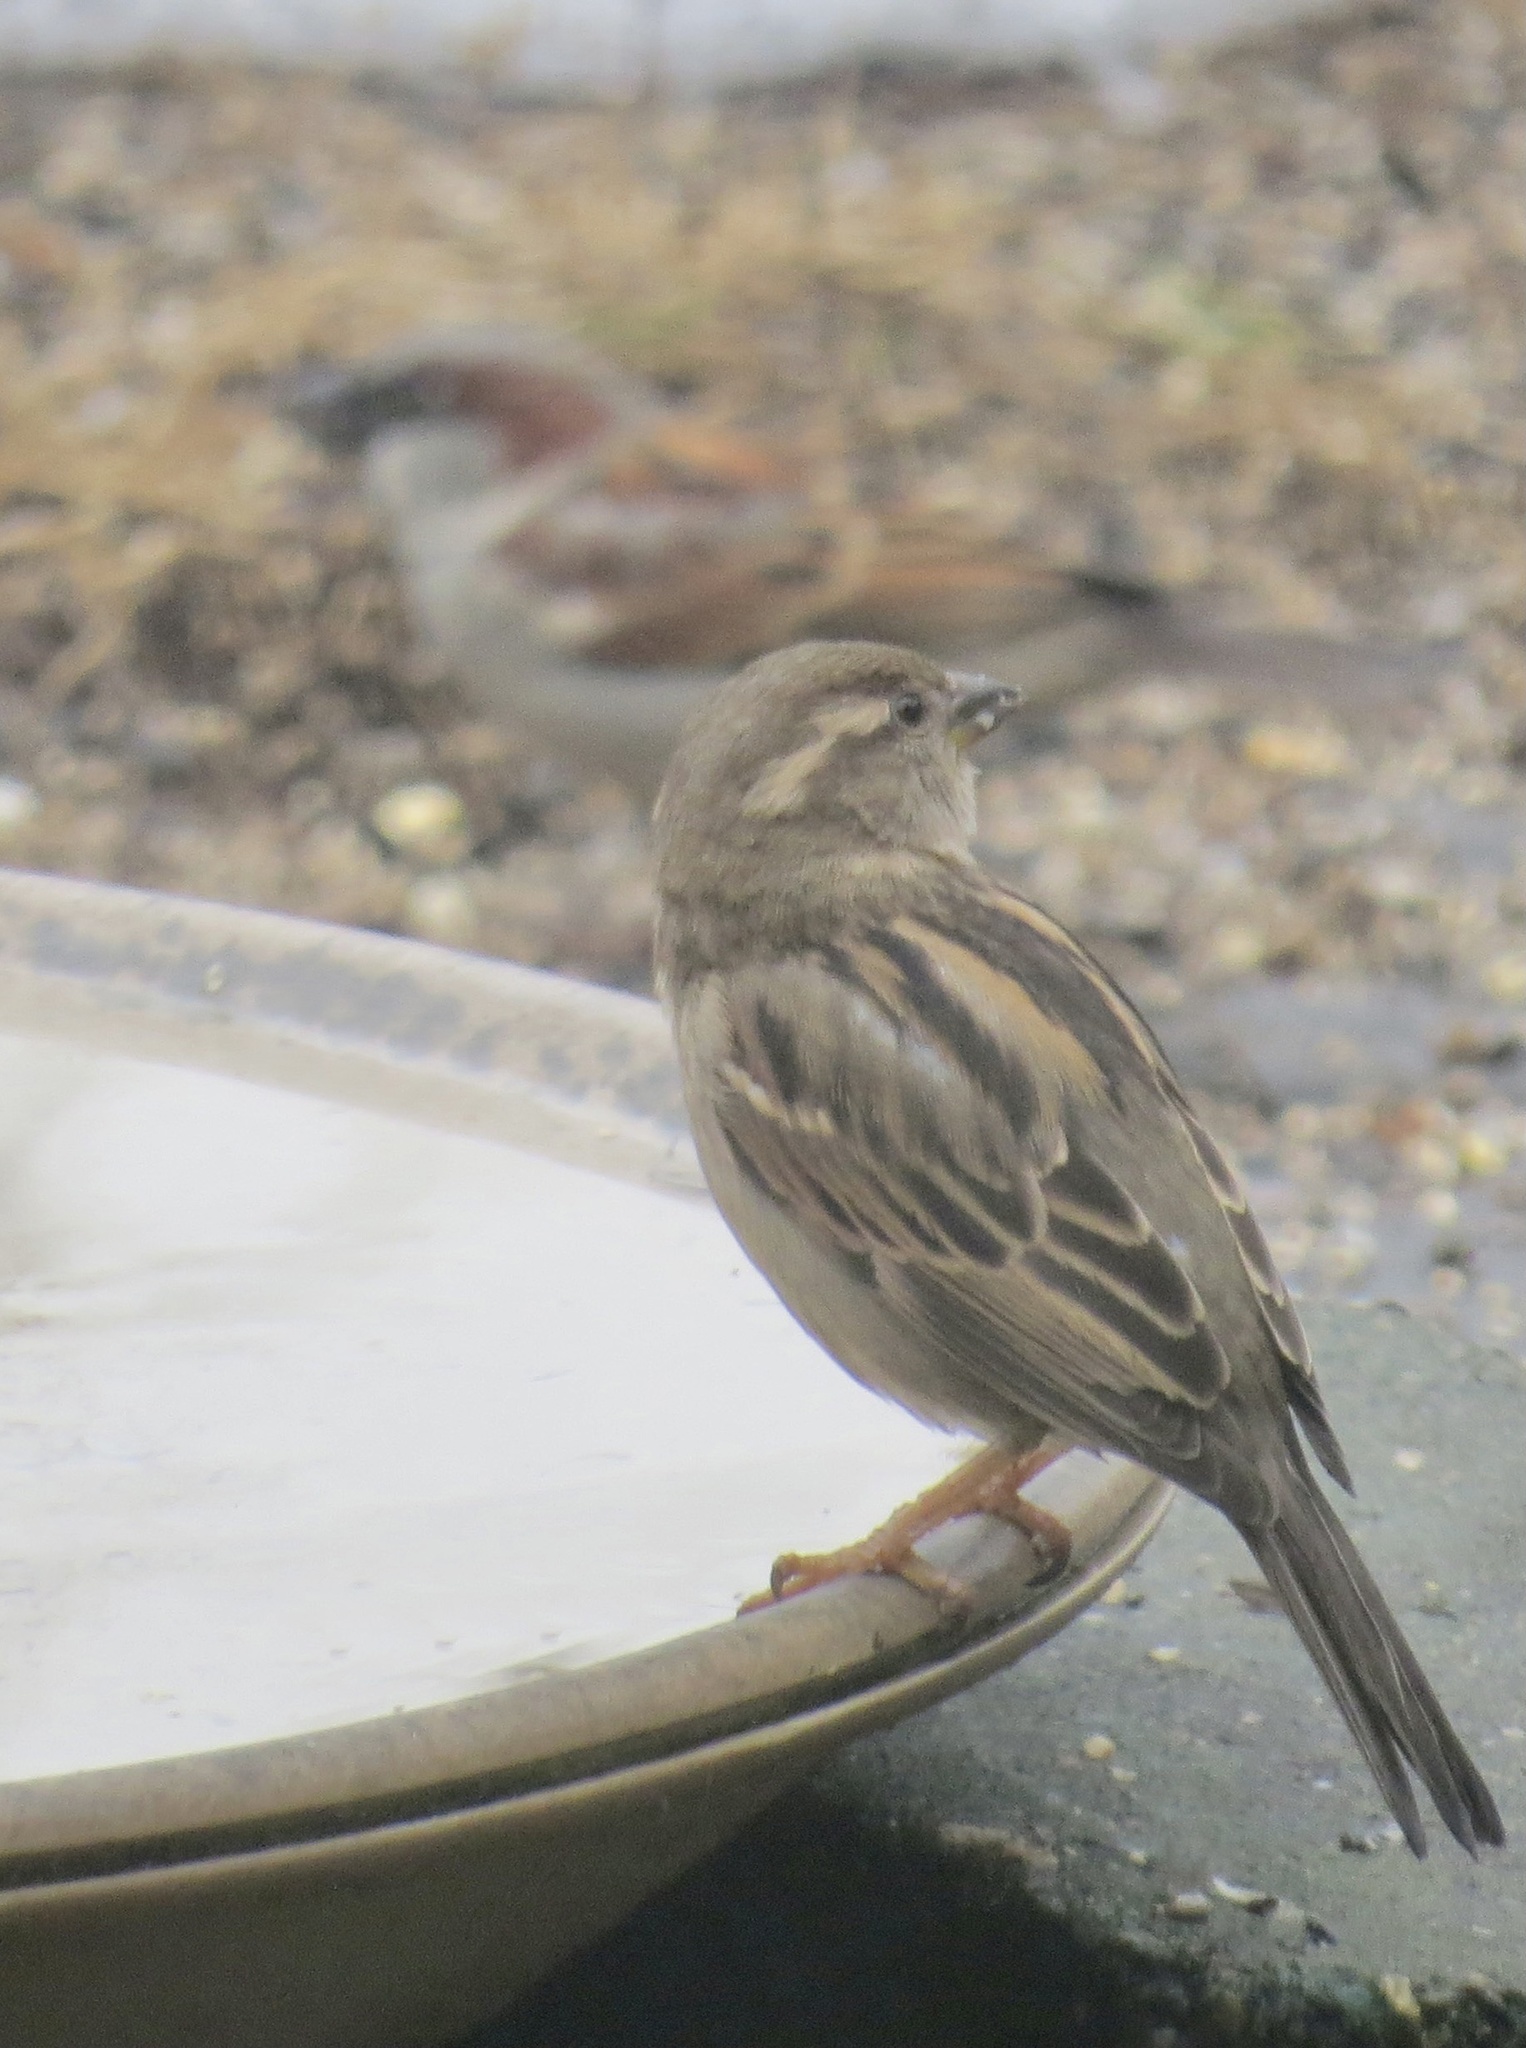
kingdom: Animalia
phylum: Chordata
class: Aves
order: Passeriformes
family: Passeridae
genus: Passer
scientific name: Passer domesticus
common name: House sparrow
